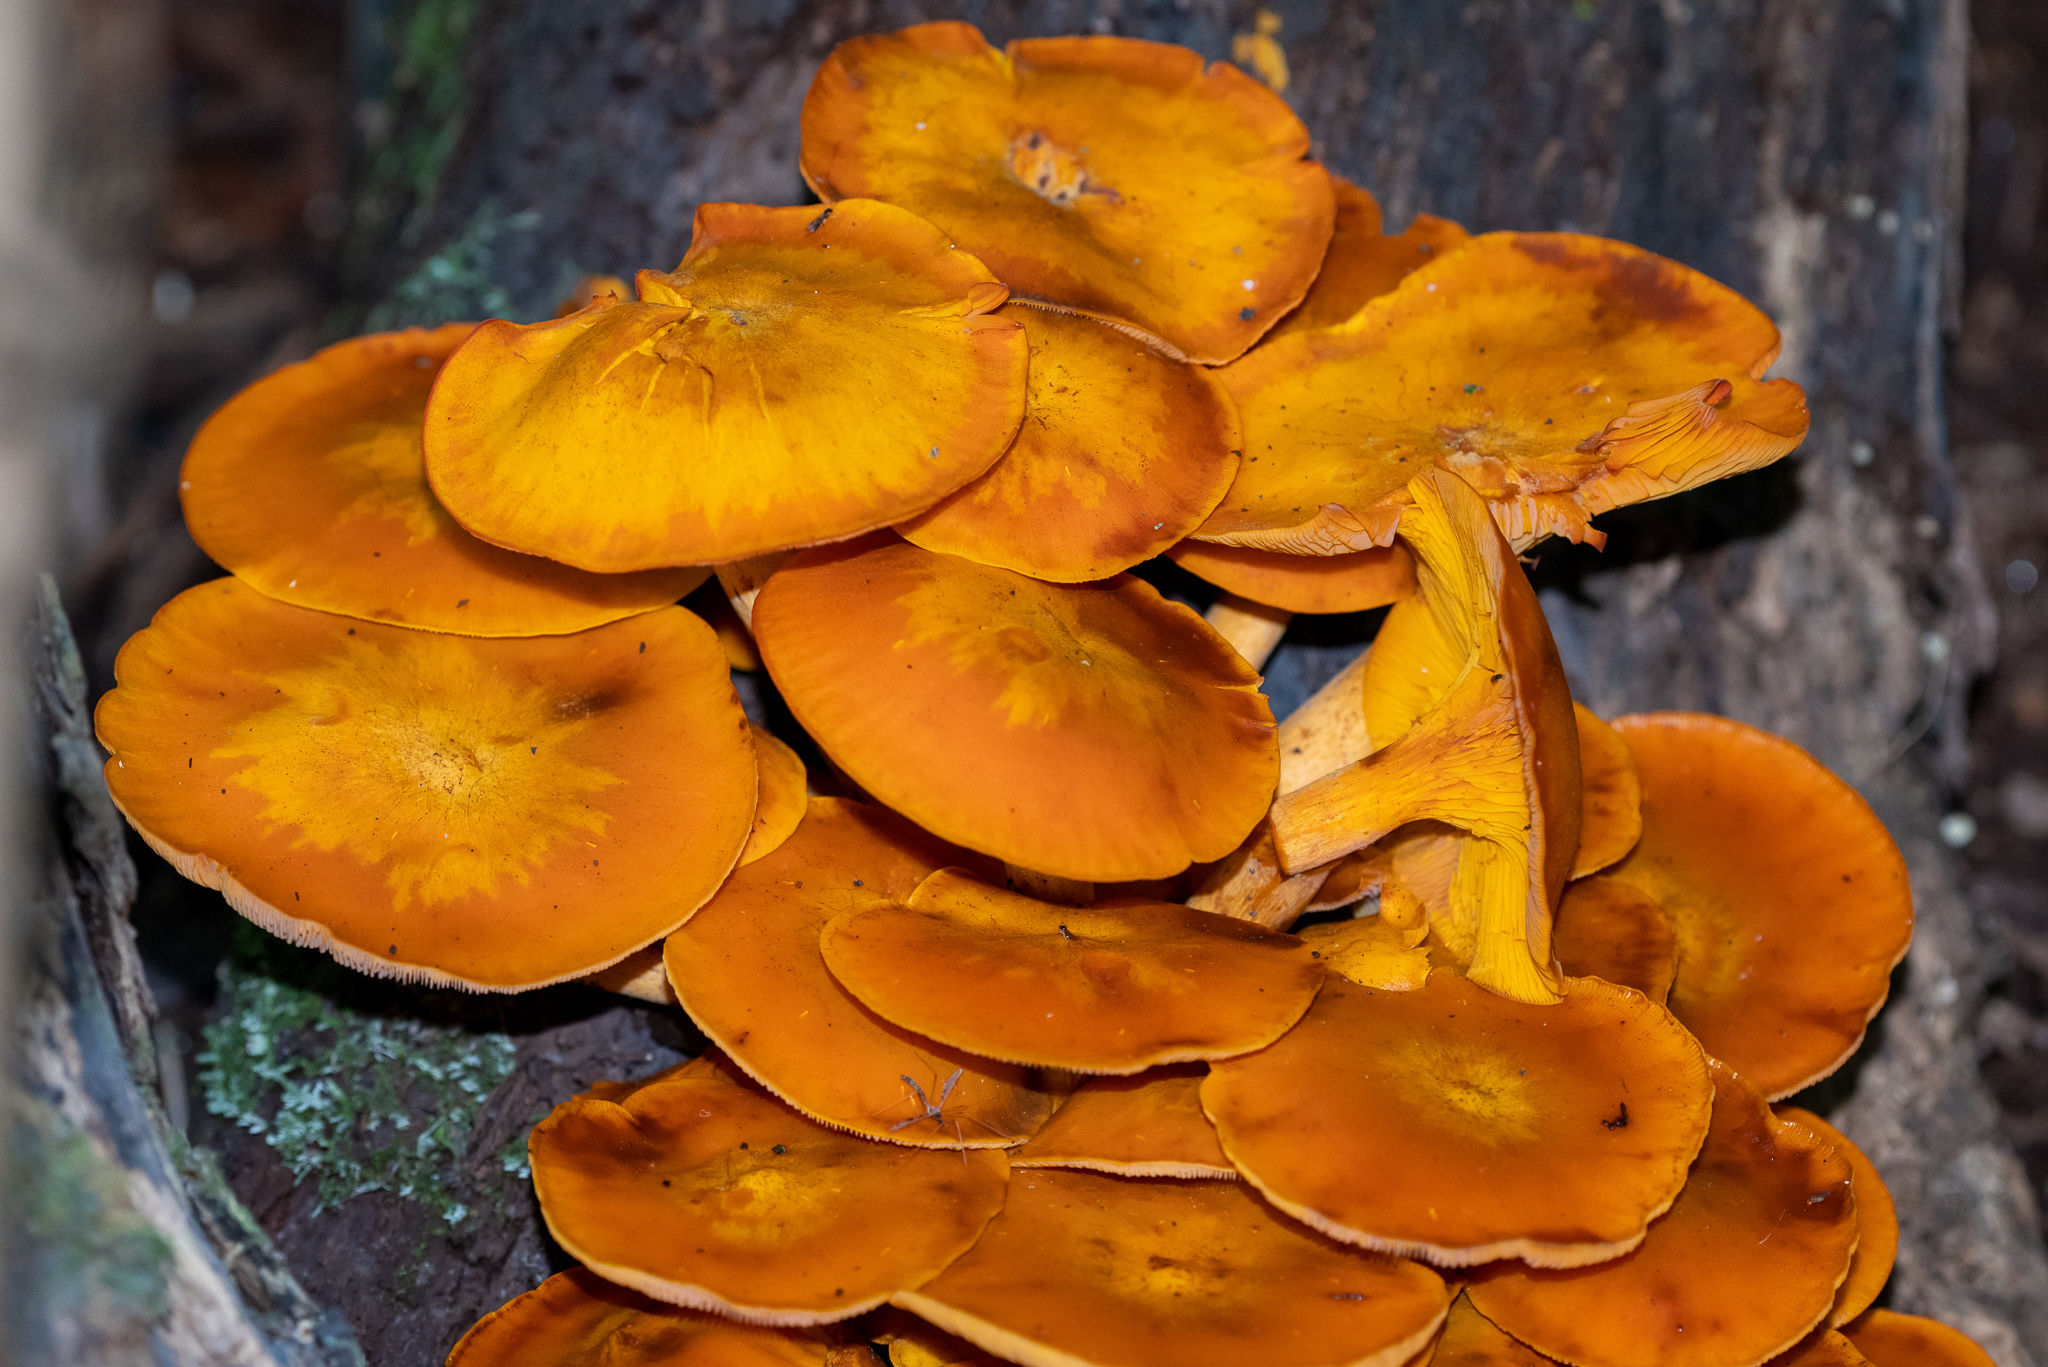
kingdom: Fungi
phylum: Basidiomycota
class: Agaricomycetes
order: Agaricales
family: Omphalotaceae
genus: Omphalotus
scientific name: Omphalotus illudens
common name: Jack o lantern
